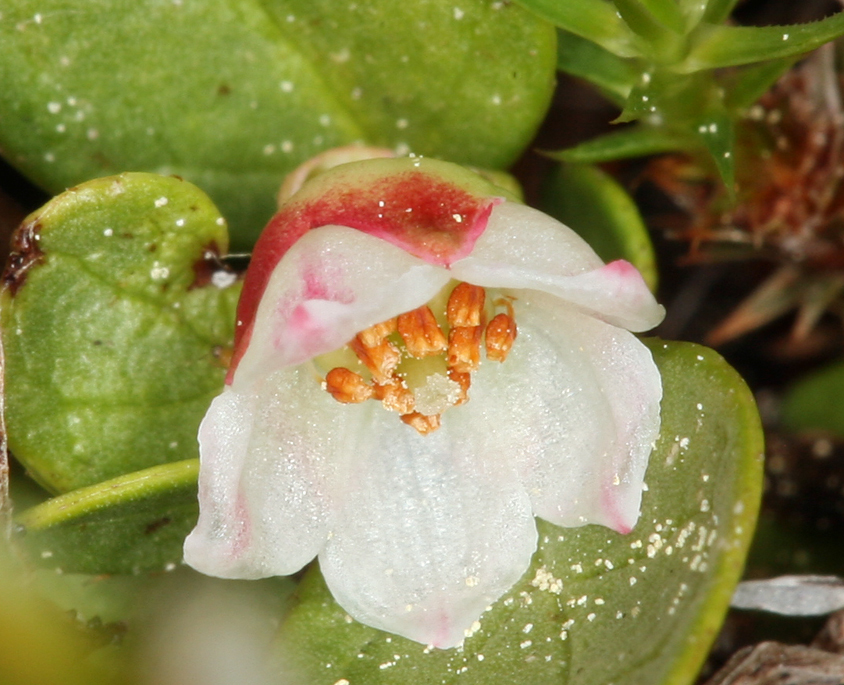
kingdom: Plantae
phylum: Tracheophyta
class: Magnoliopsida
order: Ericales
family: Ericaceae
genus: Gaultheria
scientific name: Gaultheria humifusa
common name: Alpine wintergreen
